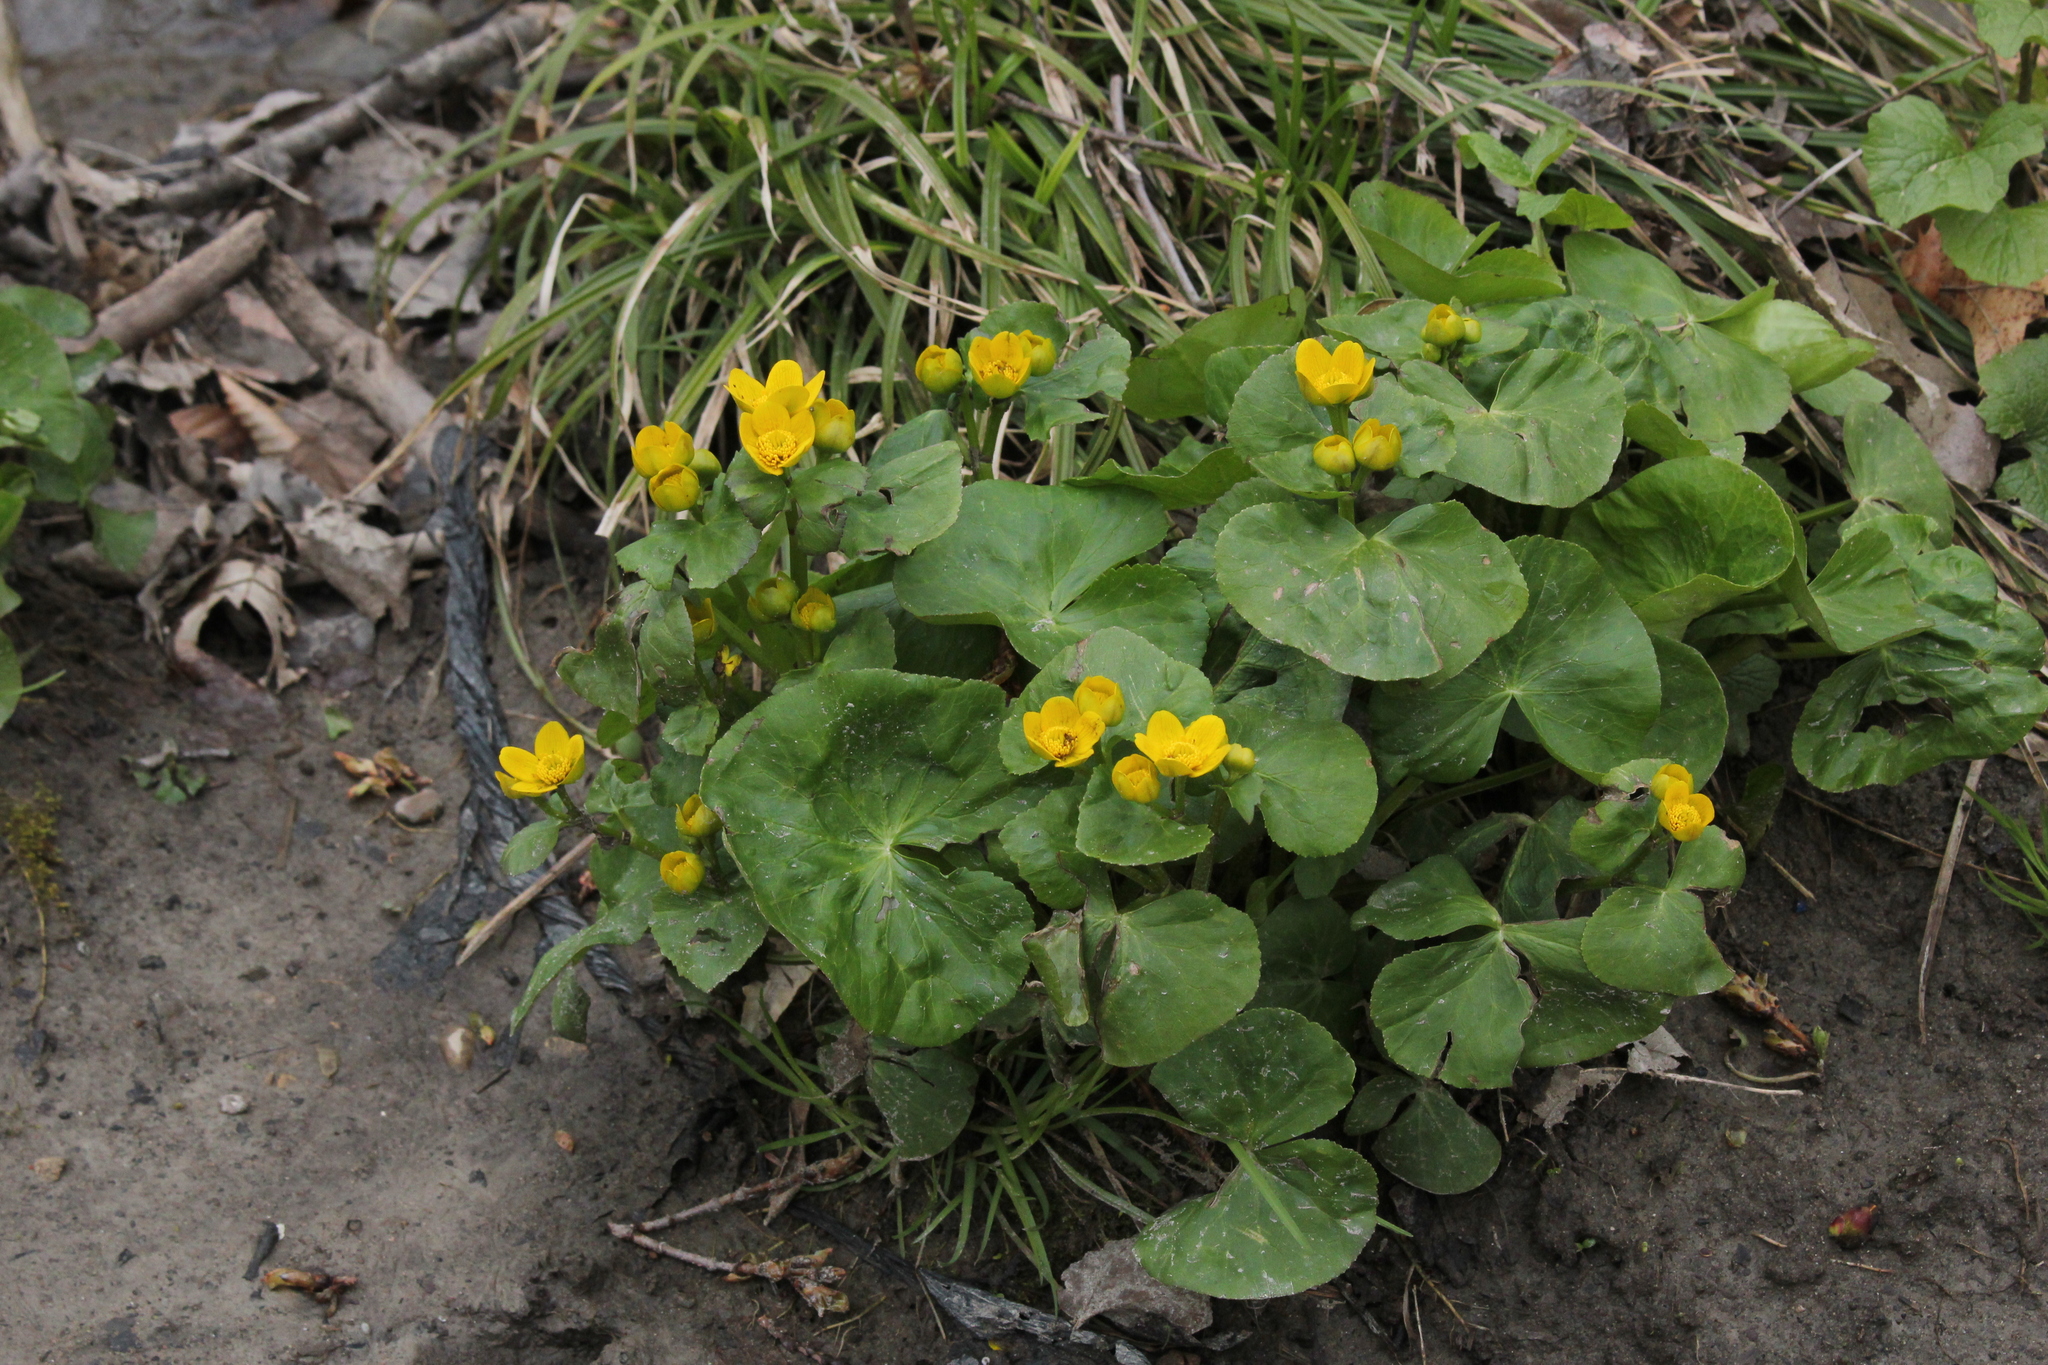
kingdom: Plantae
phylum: Tracheophyta
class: Magnoliopsida
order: Ranunculales
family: Ranunculaceae
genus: Caltha
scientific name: Caltha palustris
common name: Marsh marigold
